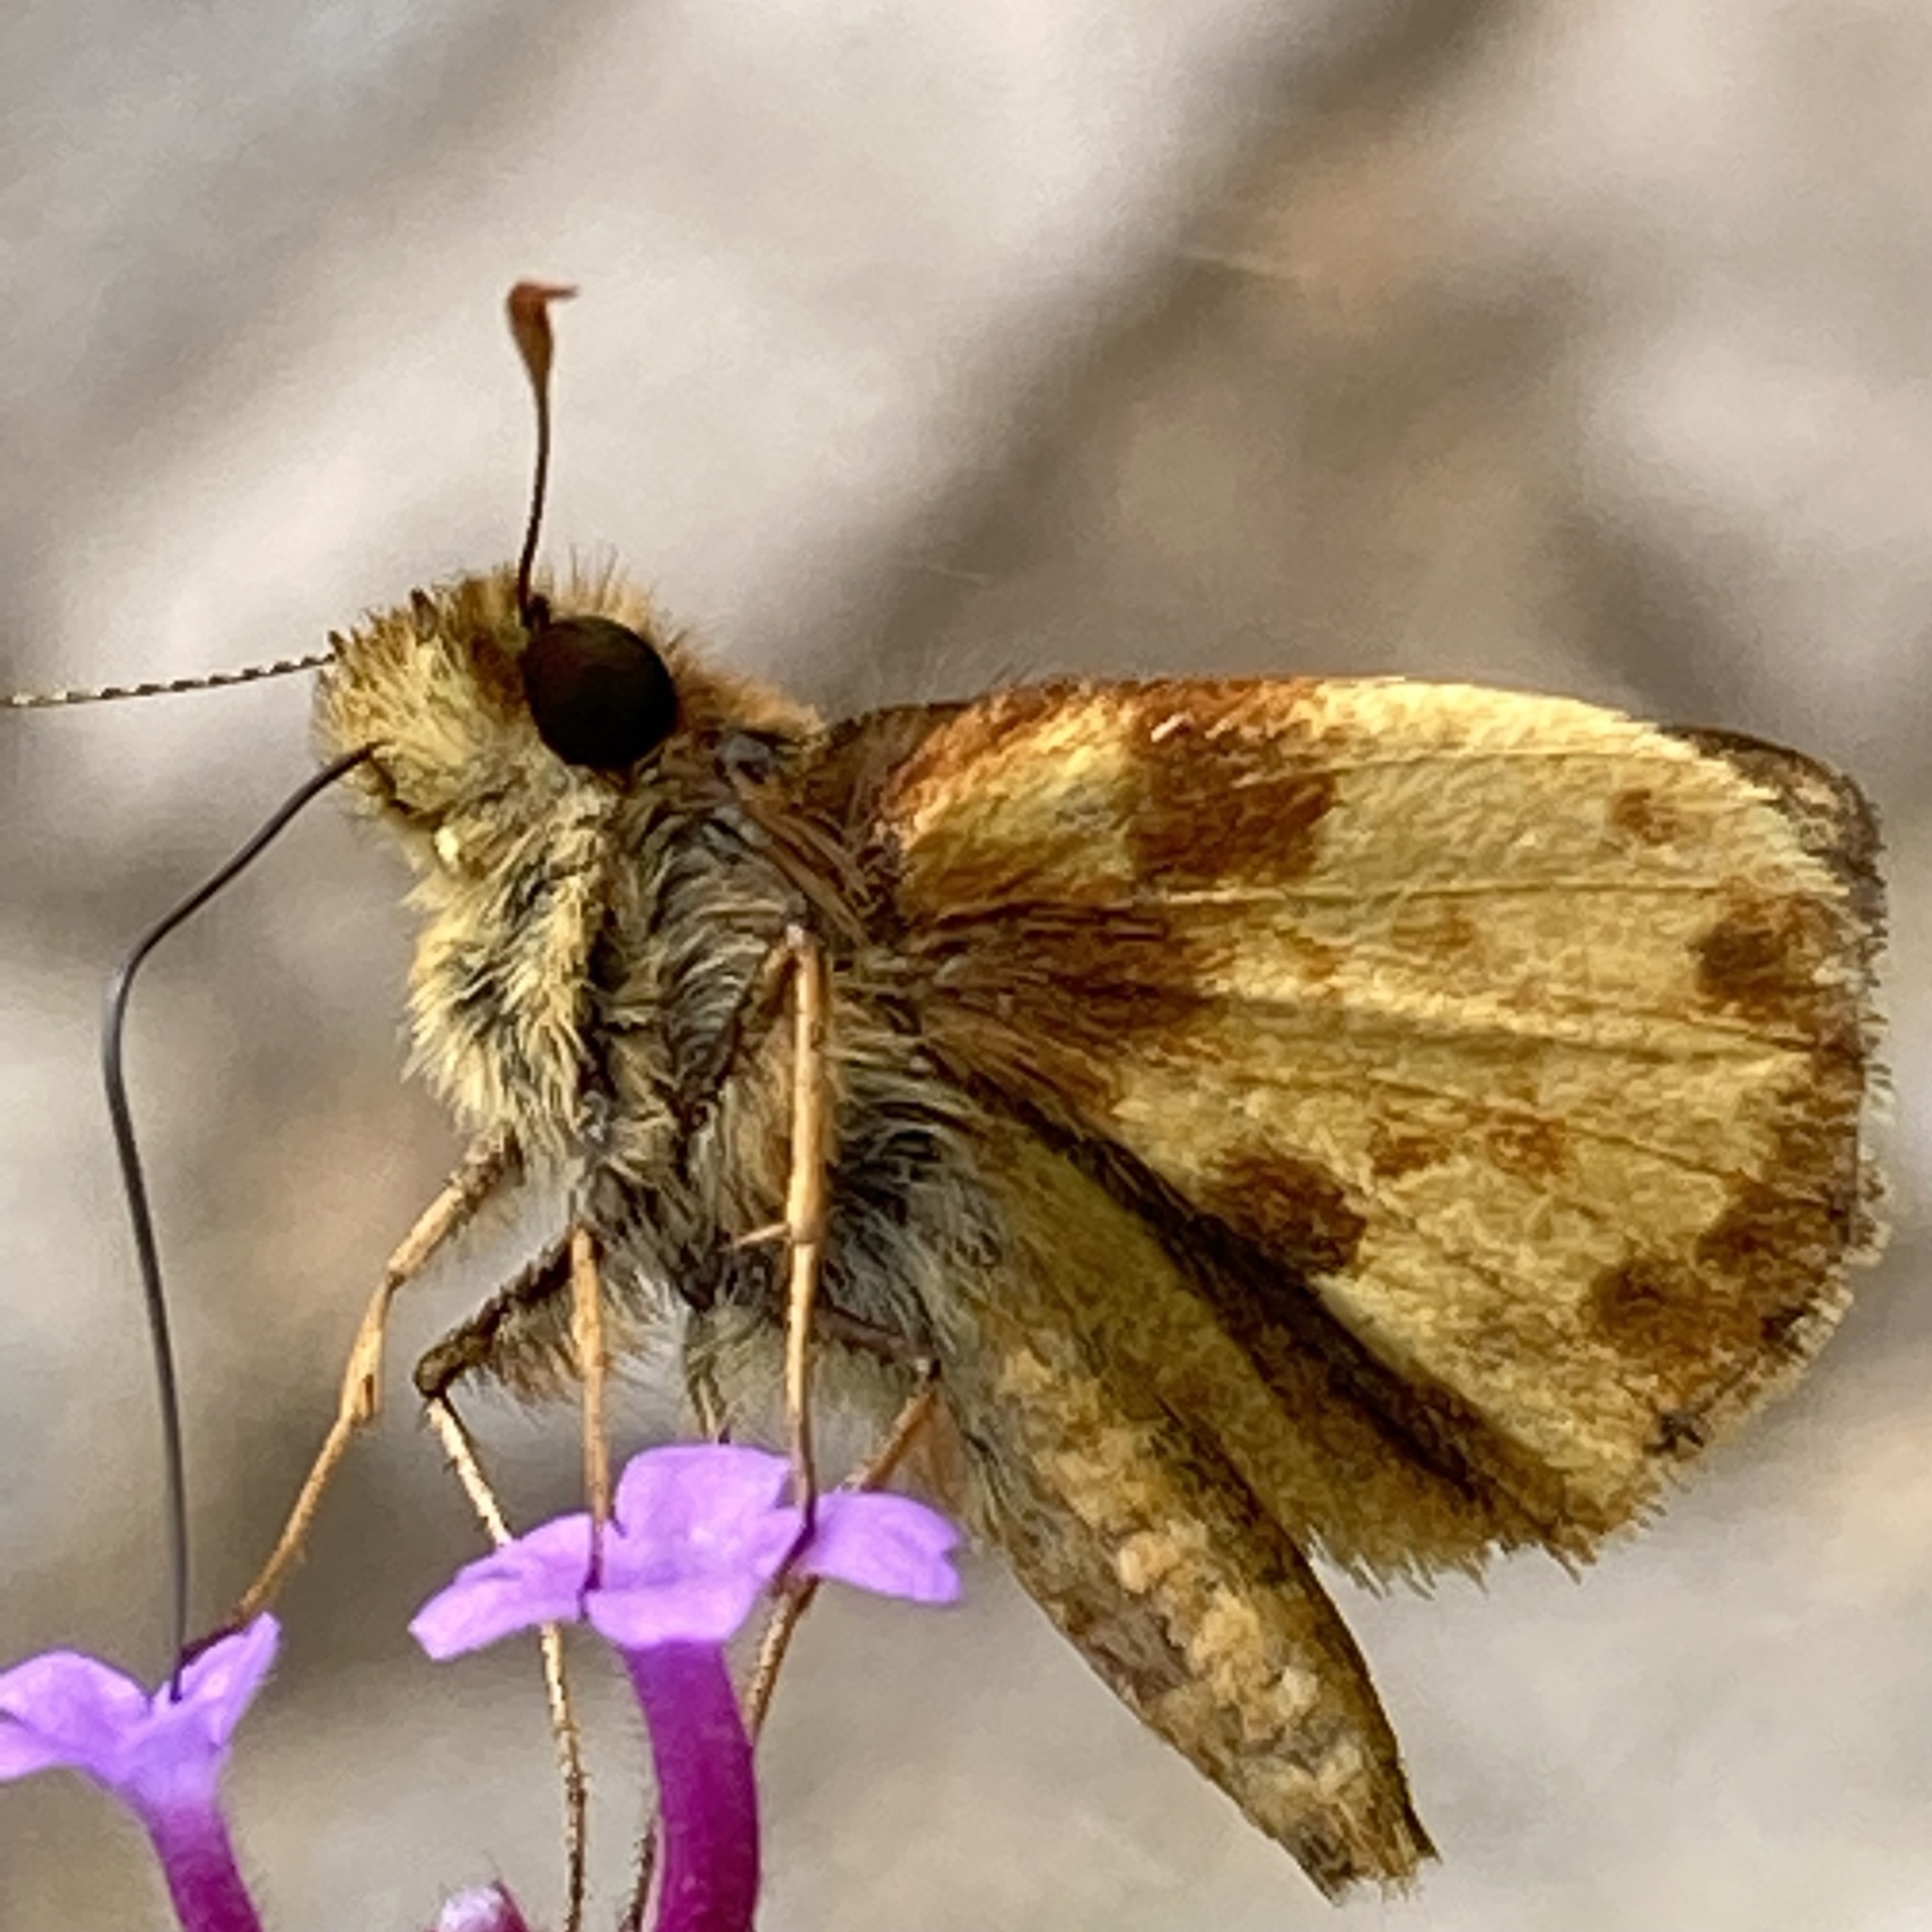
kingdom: Animalia
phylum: Arthropoda
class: Insecta
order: Lepidoptera
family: Hesperiidae
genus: Lon
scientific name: Lon zabulon
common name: Zabulon skipper
